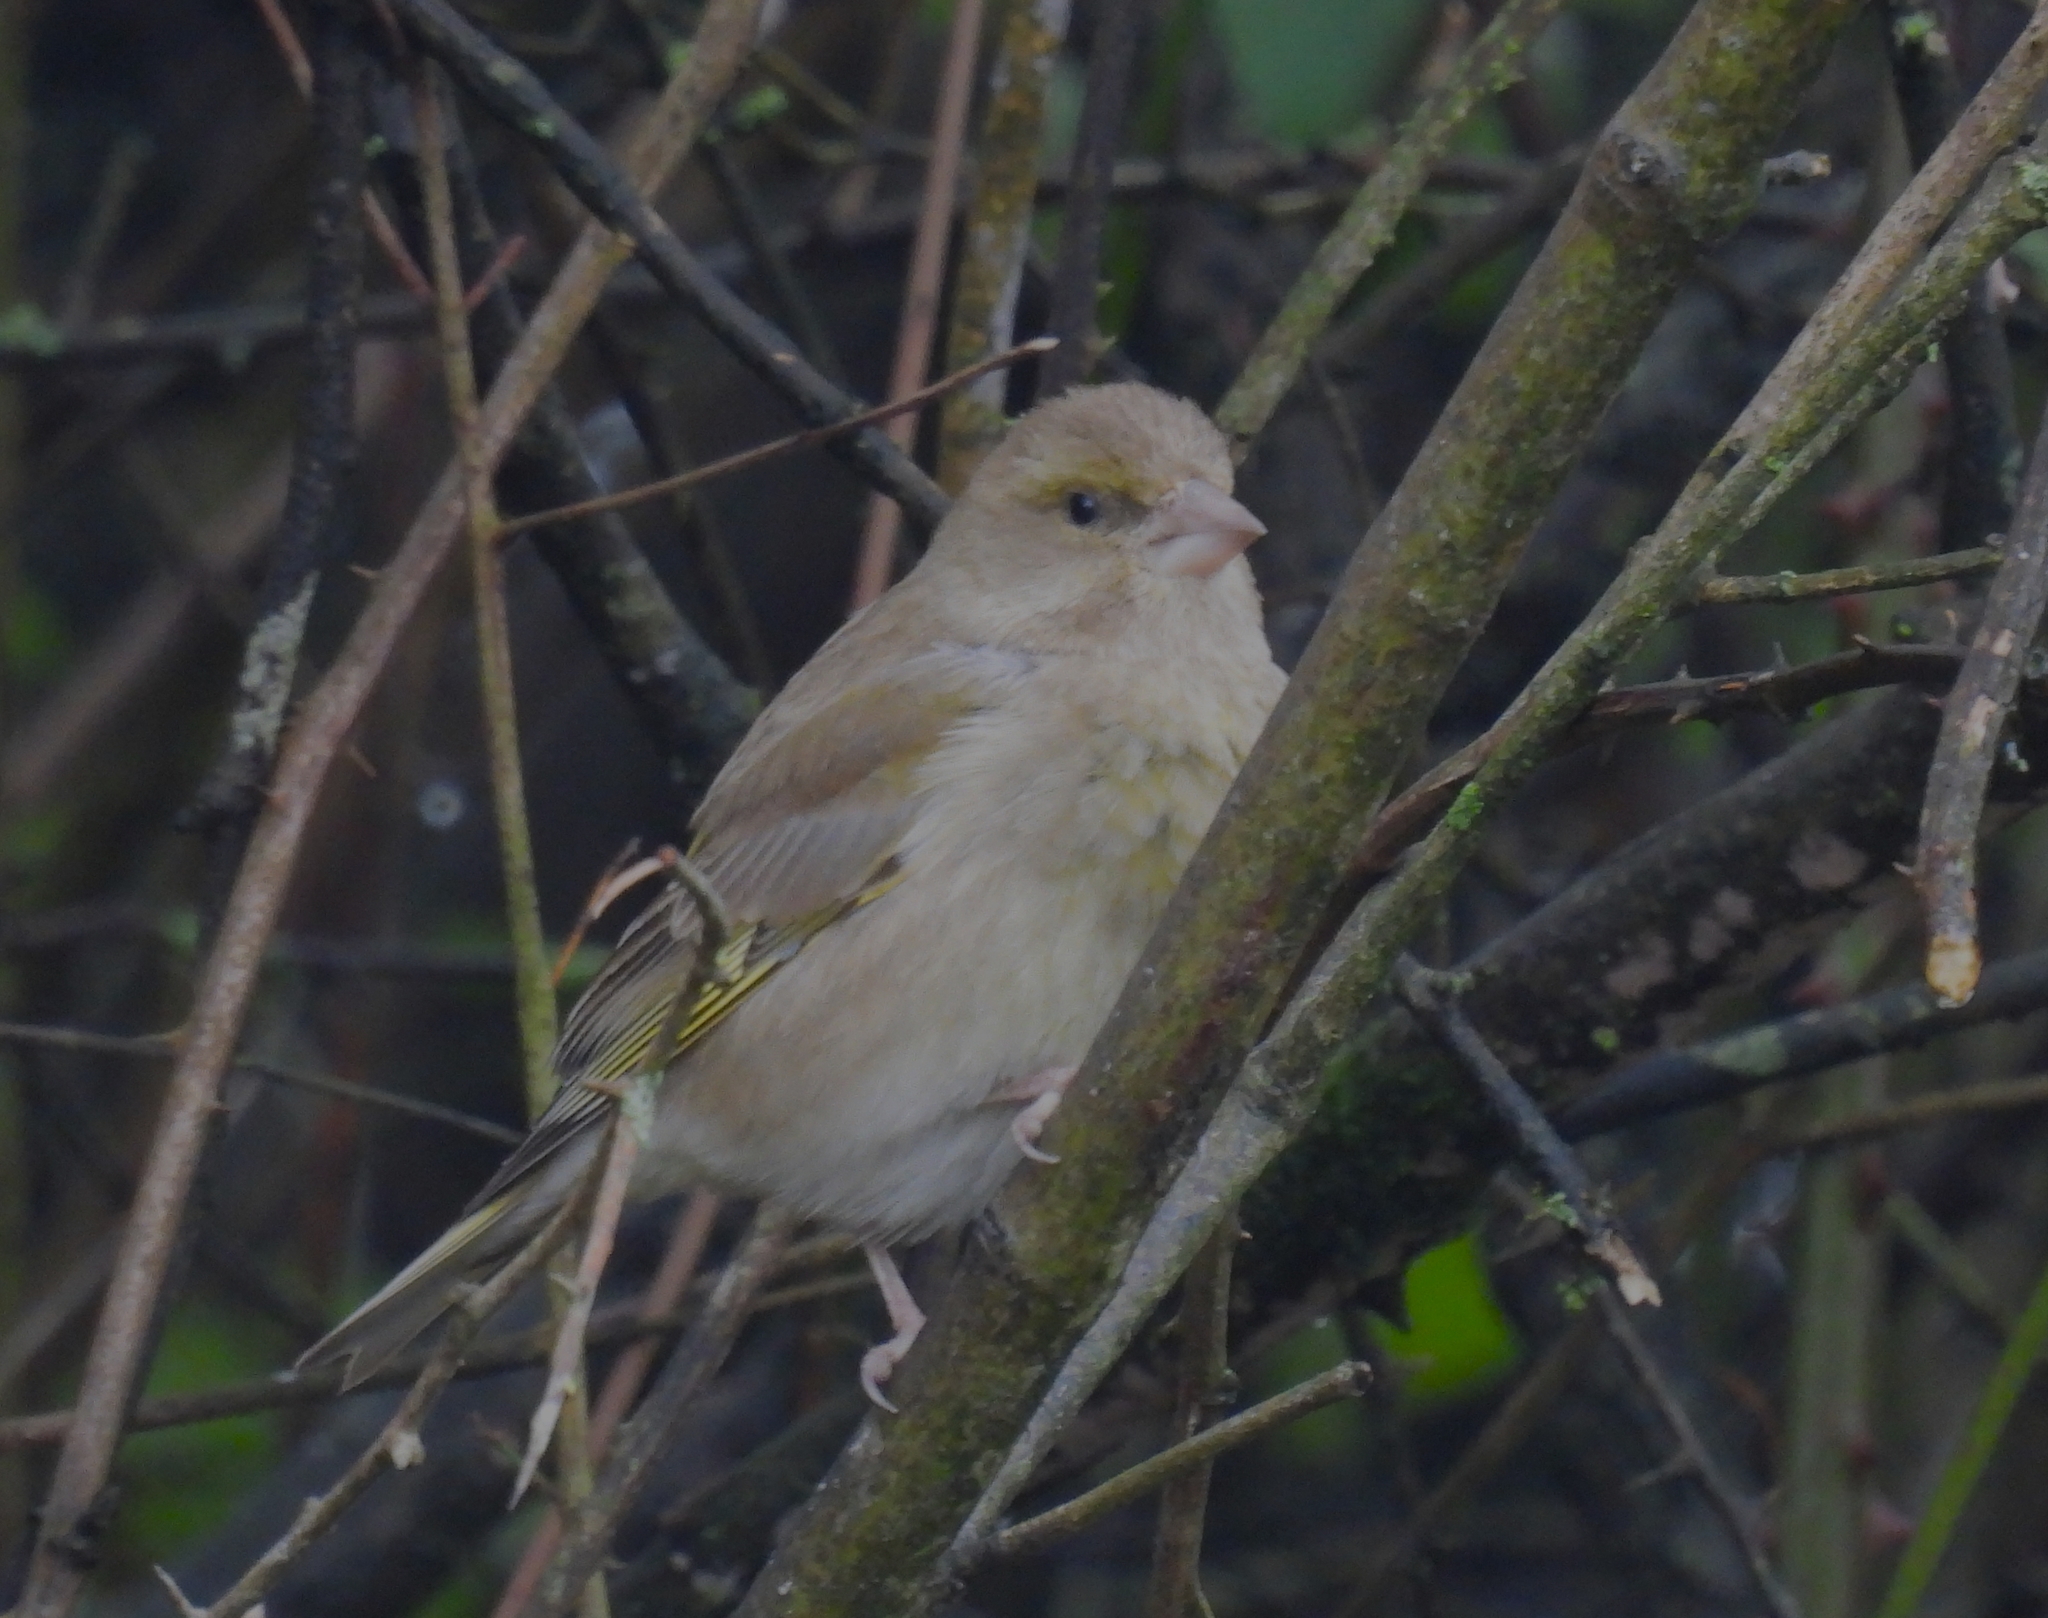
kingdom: Plantae
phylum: Tracheophyta
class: Liliopsida
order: Poales
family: Poaceae
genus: Chloris
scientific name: Chloris chloris
